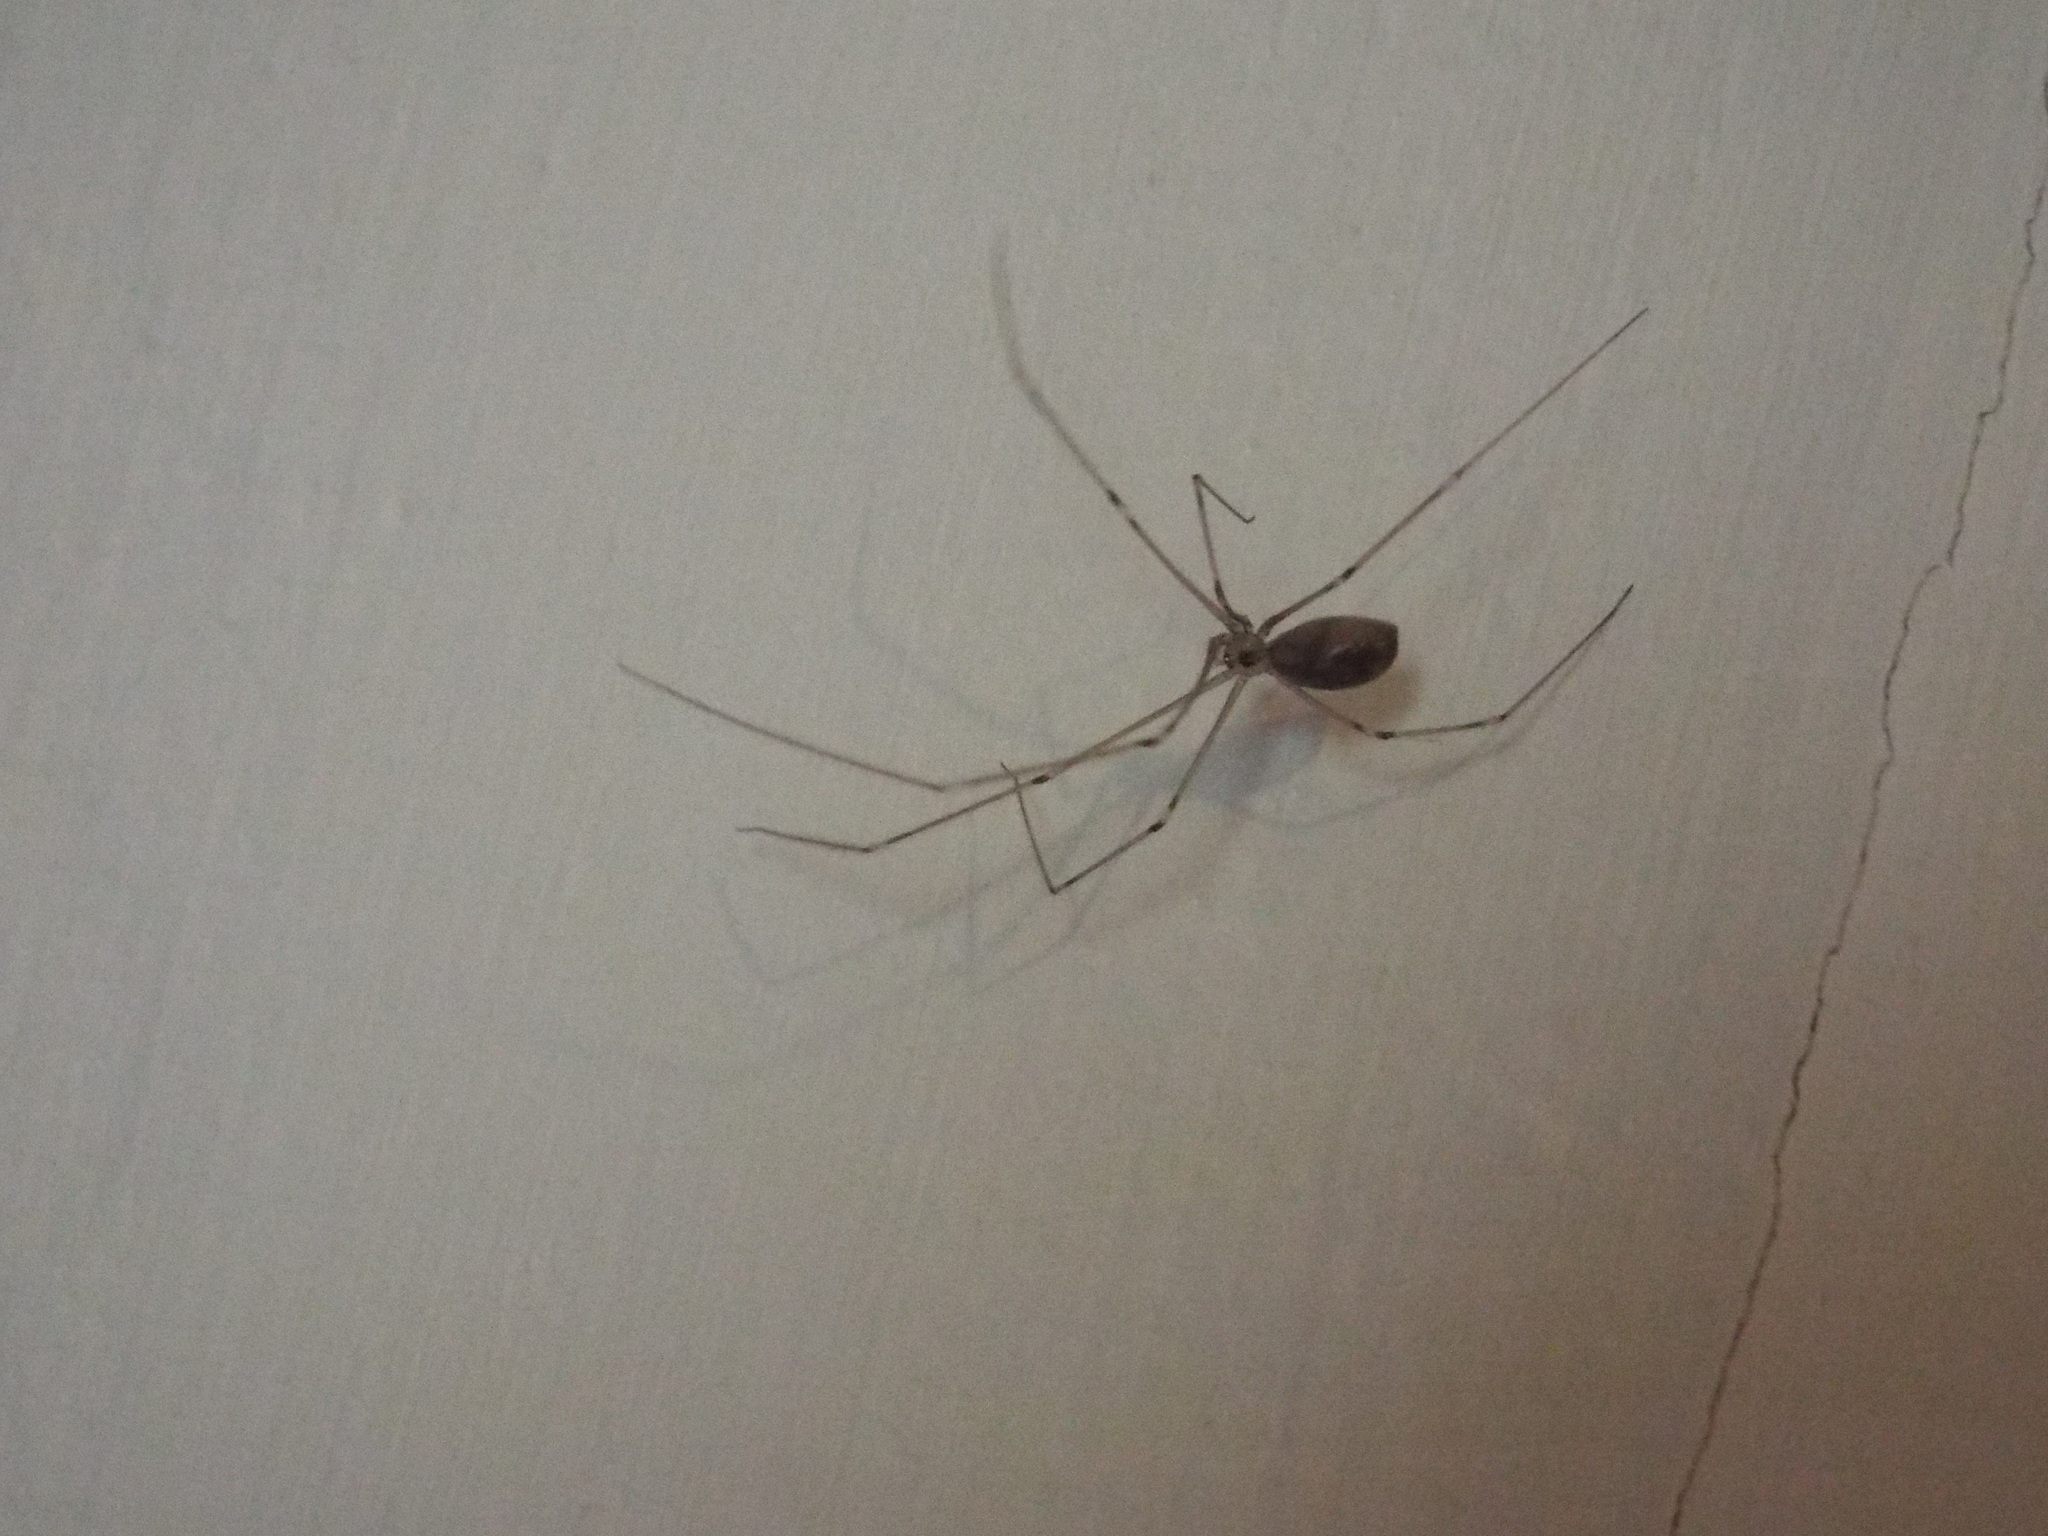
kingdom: Animalia
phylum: Arthropoda
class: Arachnida
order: Araneae
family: Pholcidae
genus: Pholcus
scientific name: Pholcus phalangioides
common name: Longbodied cellar spider
